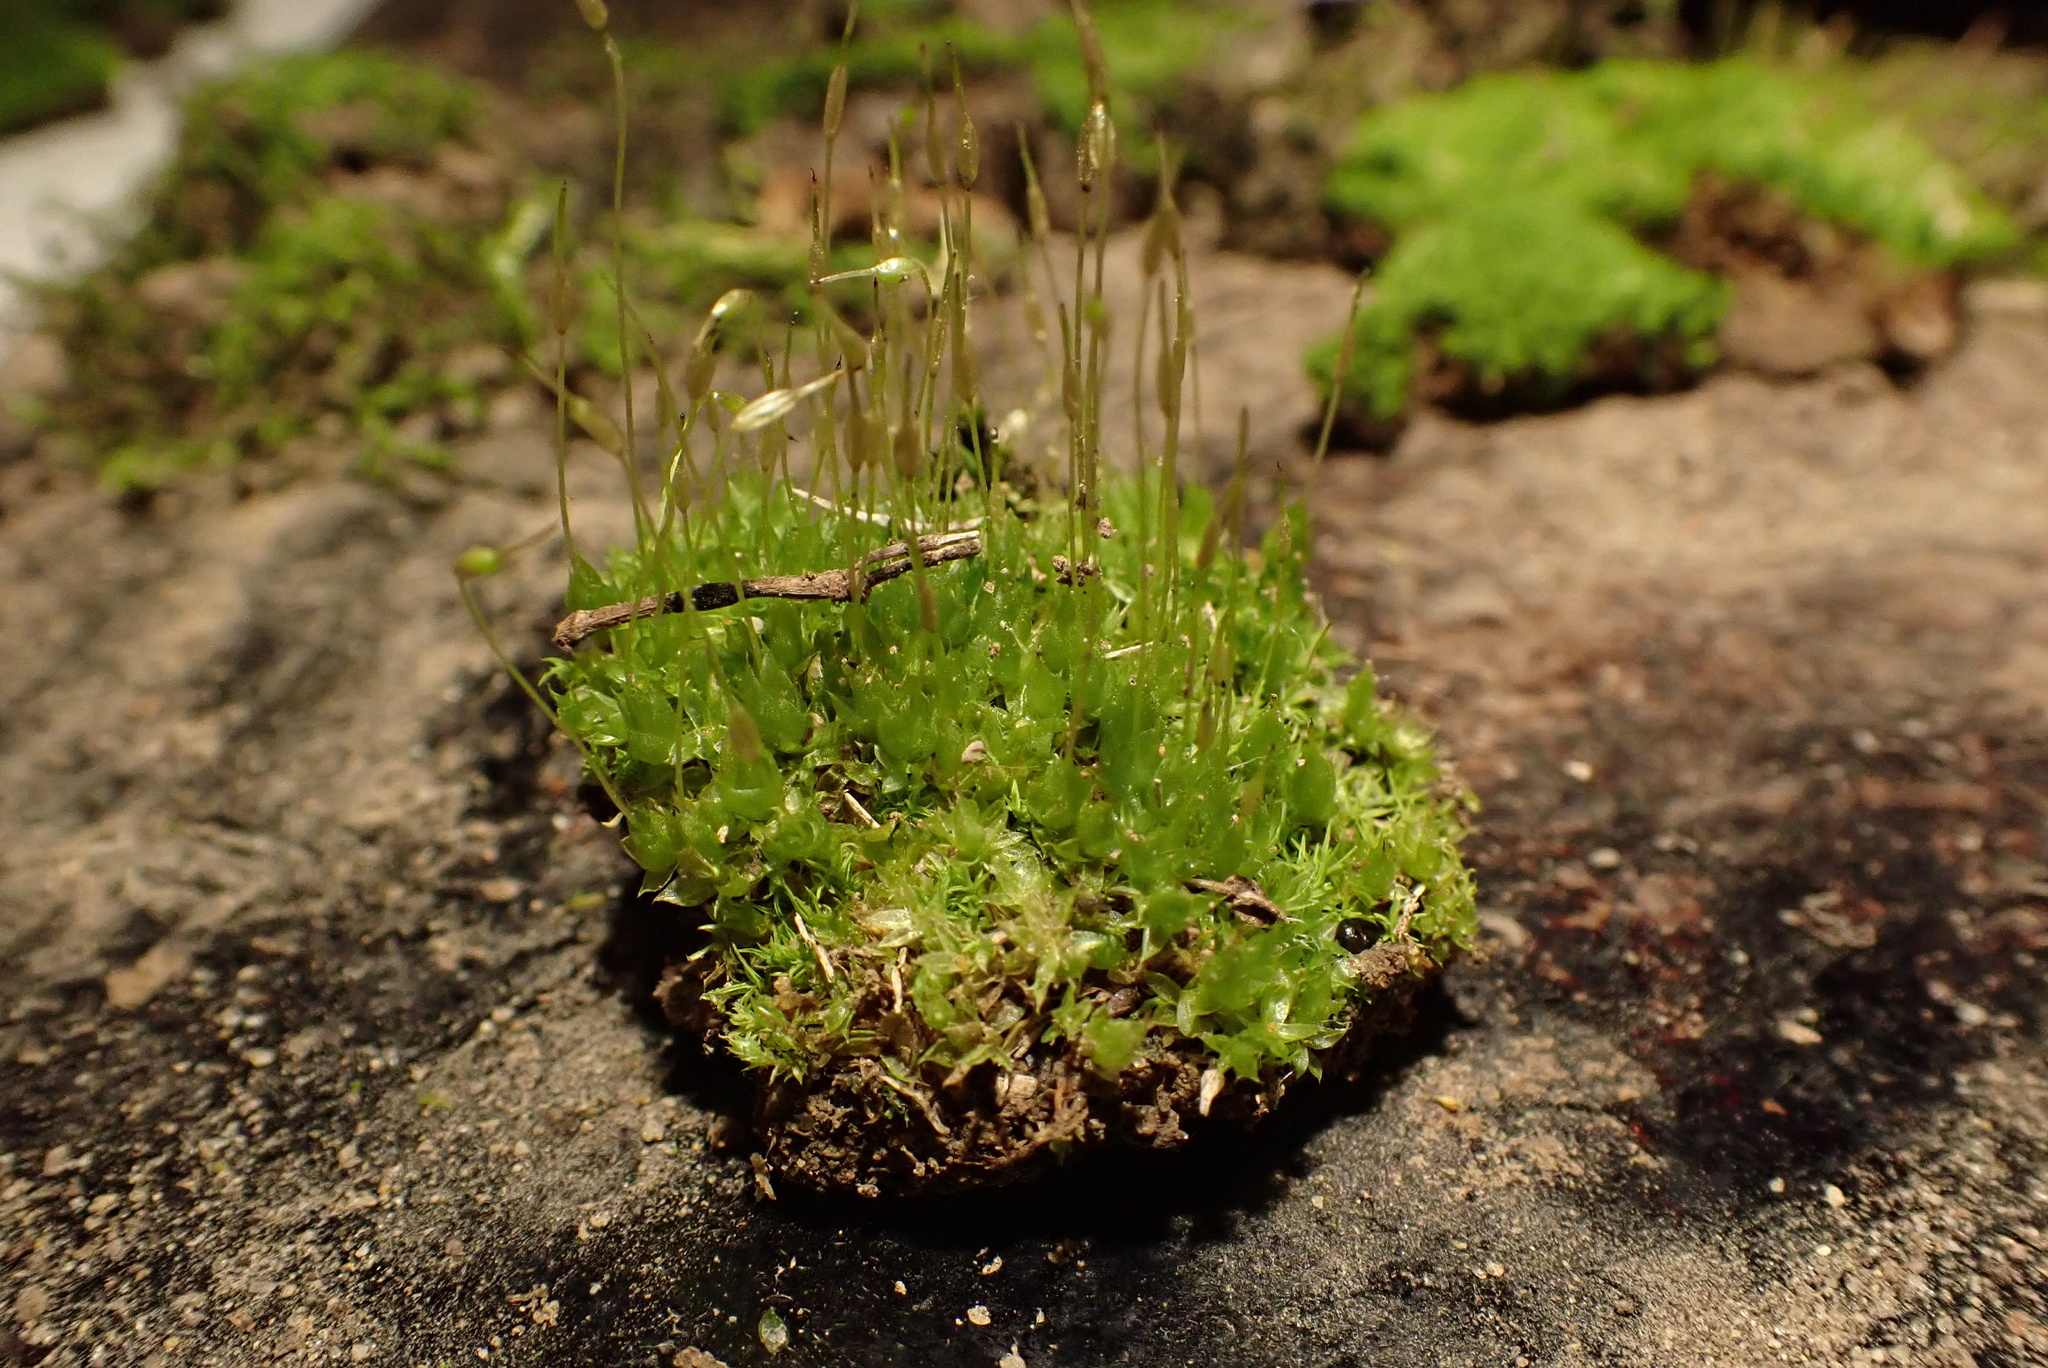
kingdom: Plantae
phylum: Bryophyta
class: Bryopsida
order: Funariales
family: Funariaceae
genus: Funaria
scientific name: Funaria hygrometrica
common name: Common cord moss
